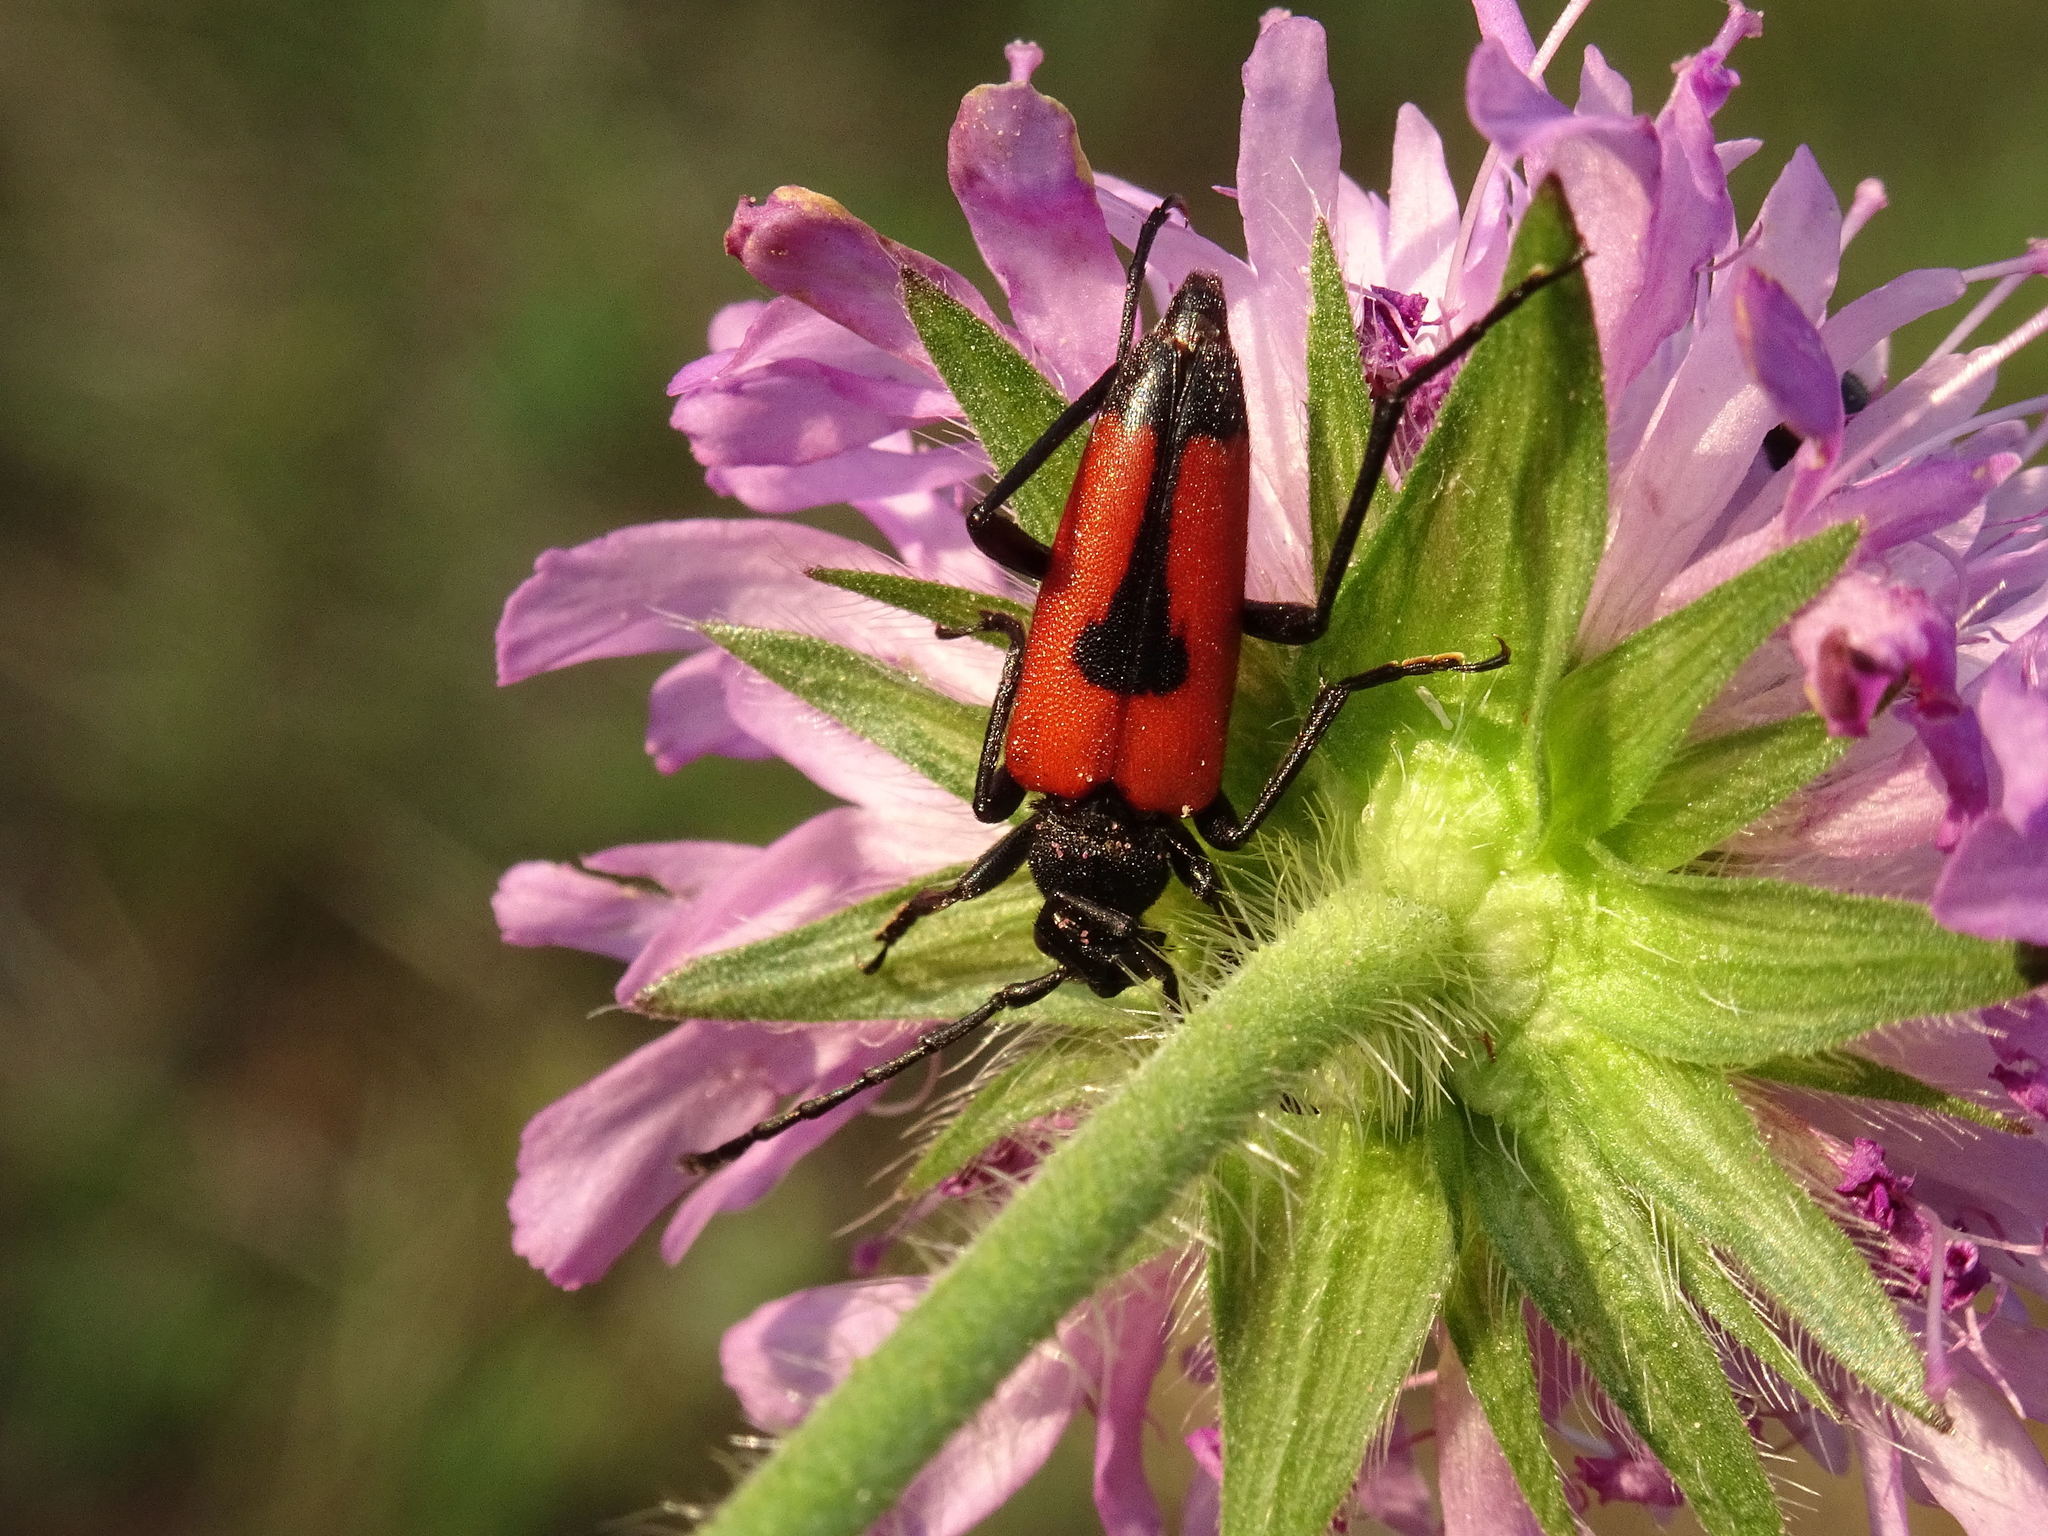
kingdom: Animalia
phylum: Arthropoda
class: Insecta
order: Coleoptera
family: Cerambycidae
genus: Stictoleptura
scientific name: Stictoleptura cordigera
